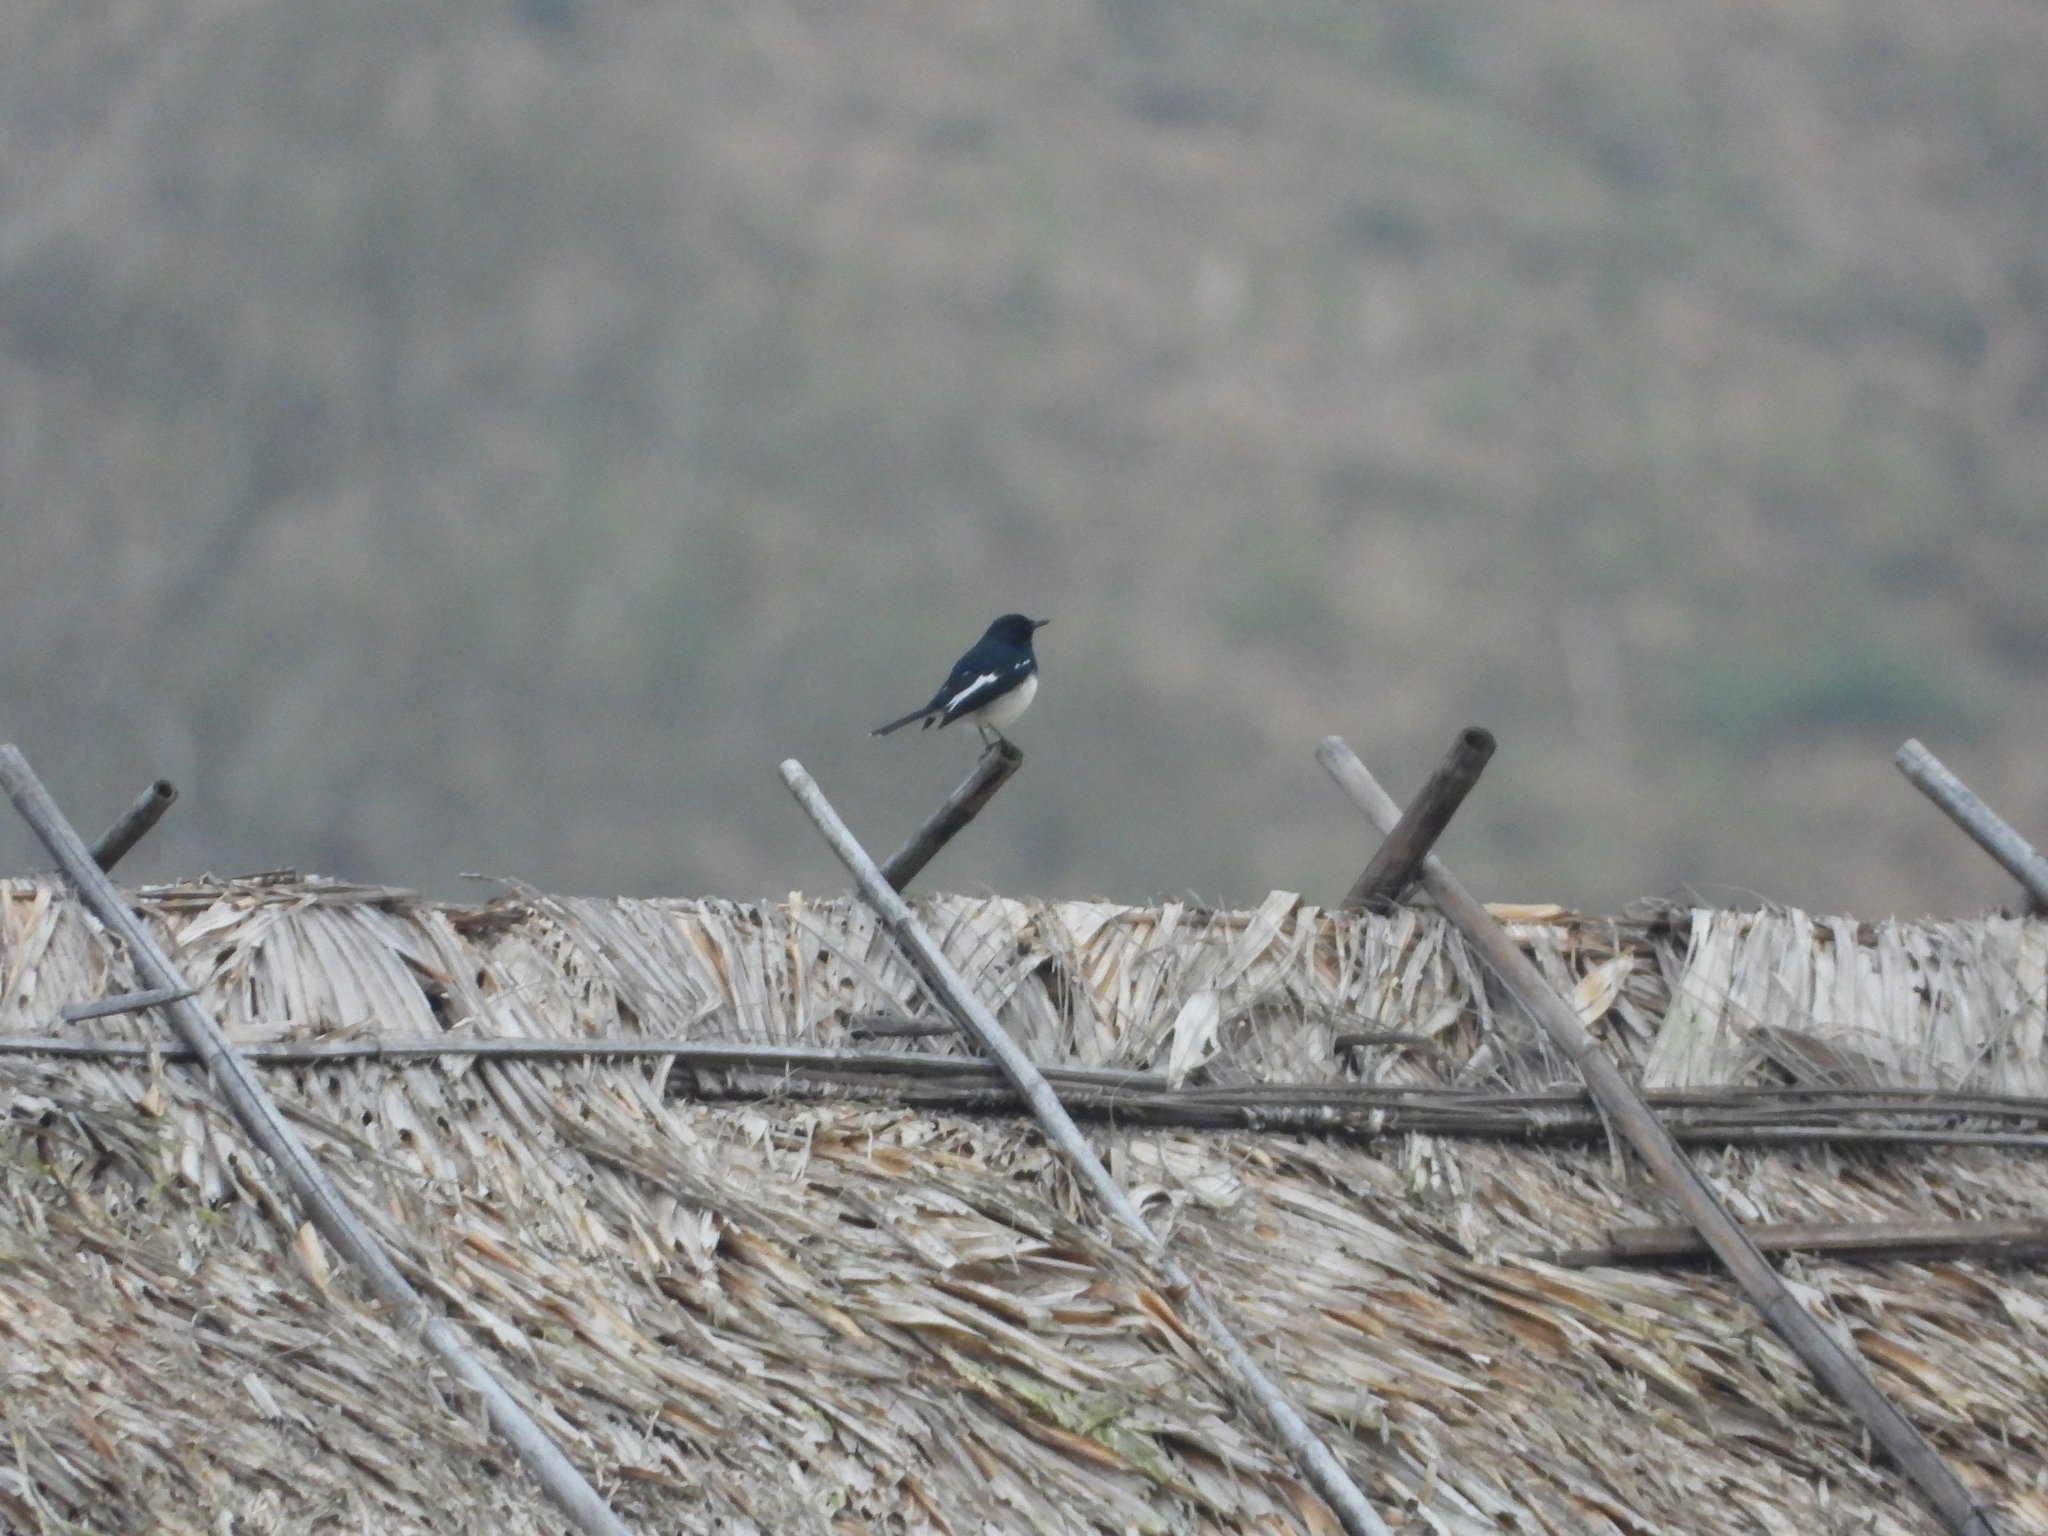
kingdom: Animalia
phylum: Chordata
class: Aves
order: Passeriformes
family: Muscicapidae
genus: Copsychus
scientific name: Copsychus saularis
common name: Oriental magpie-robin
